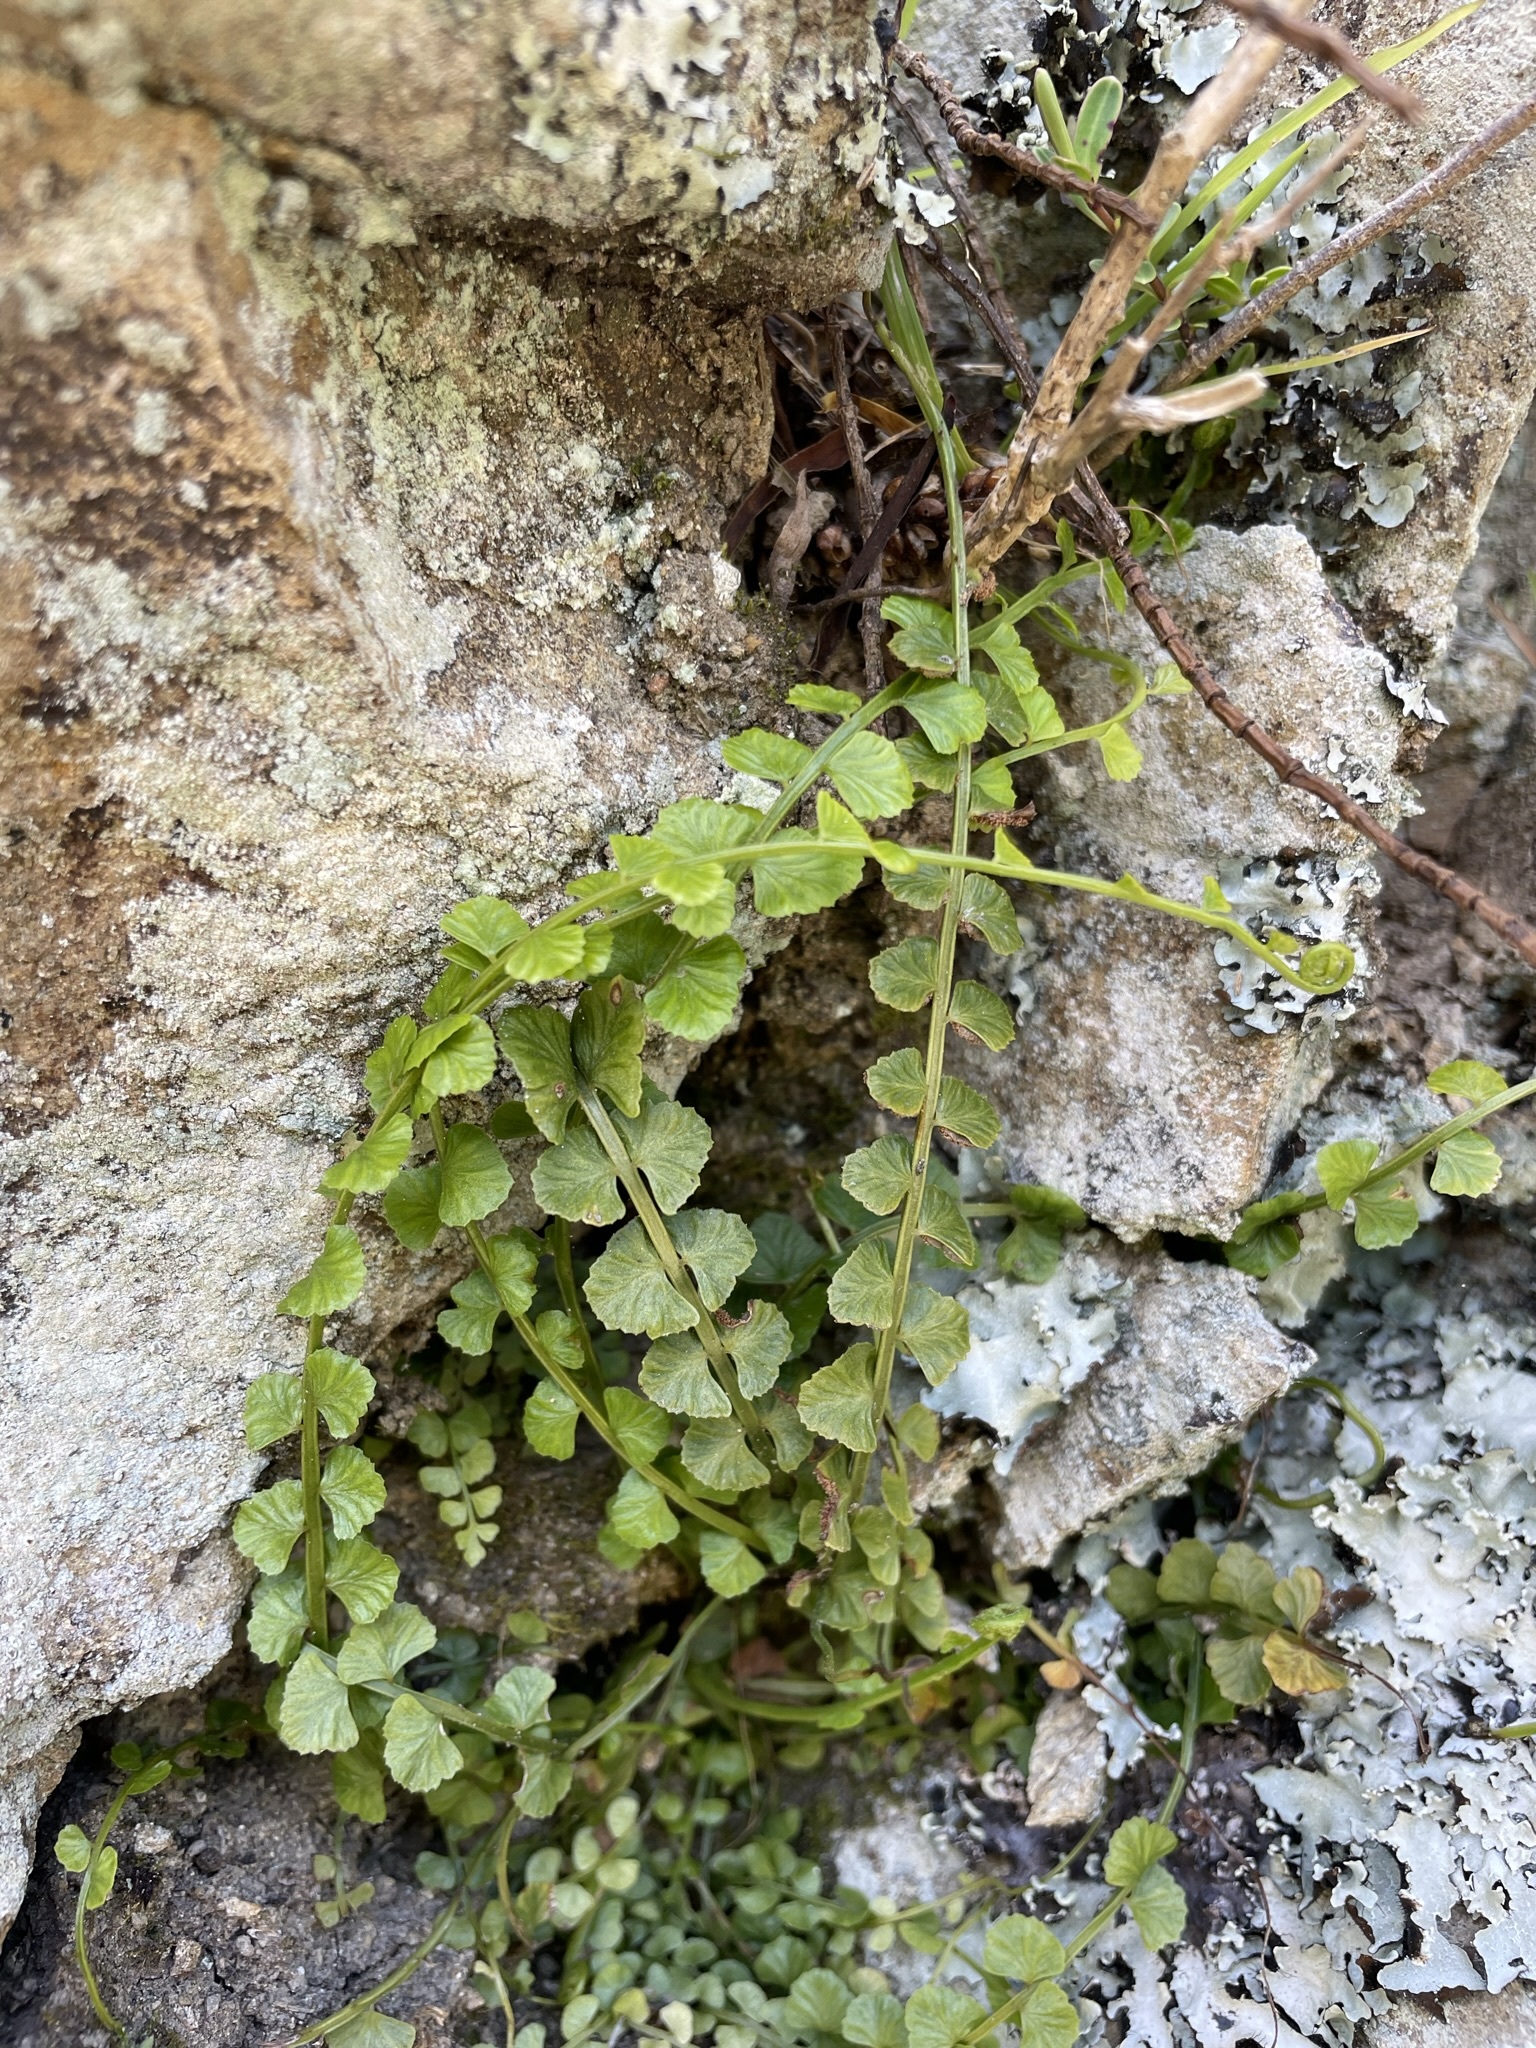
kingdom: Plantae
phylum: Tracheophyta
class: Polypodiopsida
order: Polypodiales
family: Aspleniaceae
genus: Asplenium
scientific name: Asplenium flabellifolium
